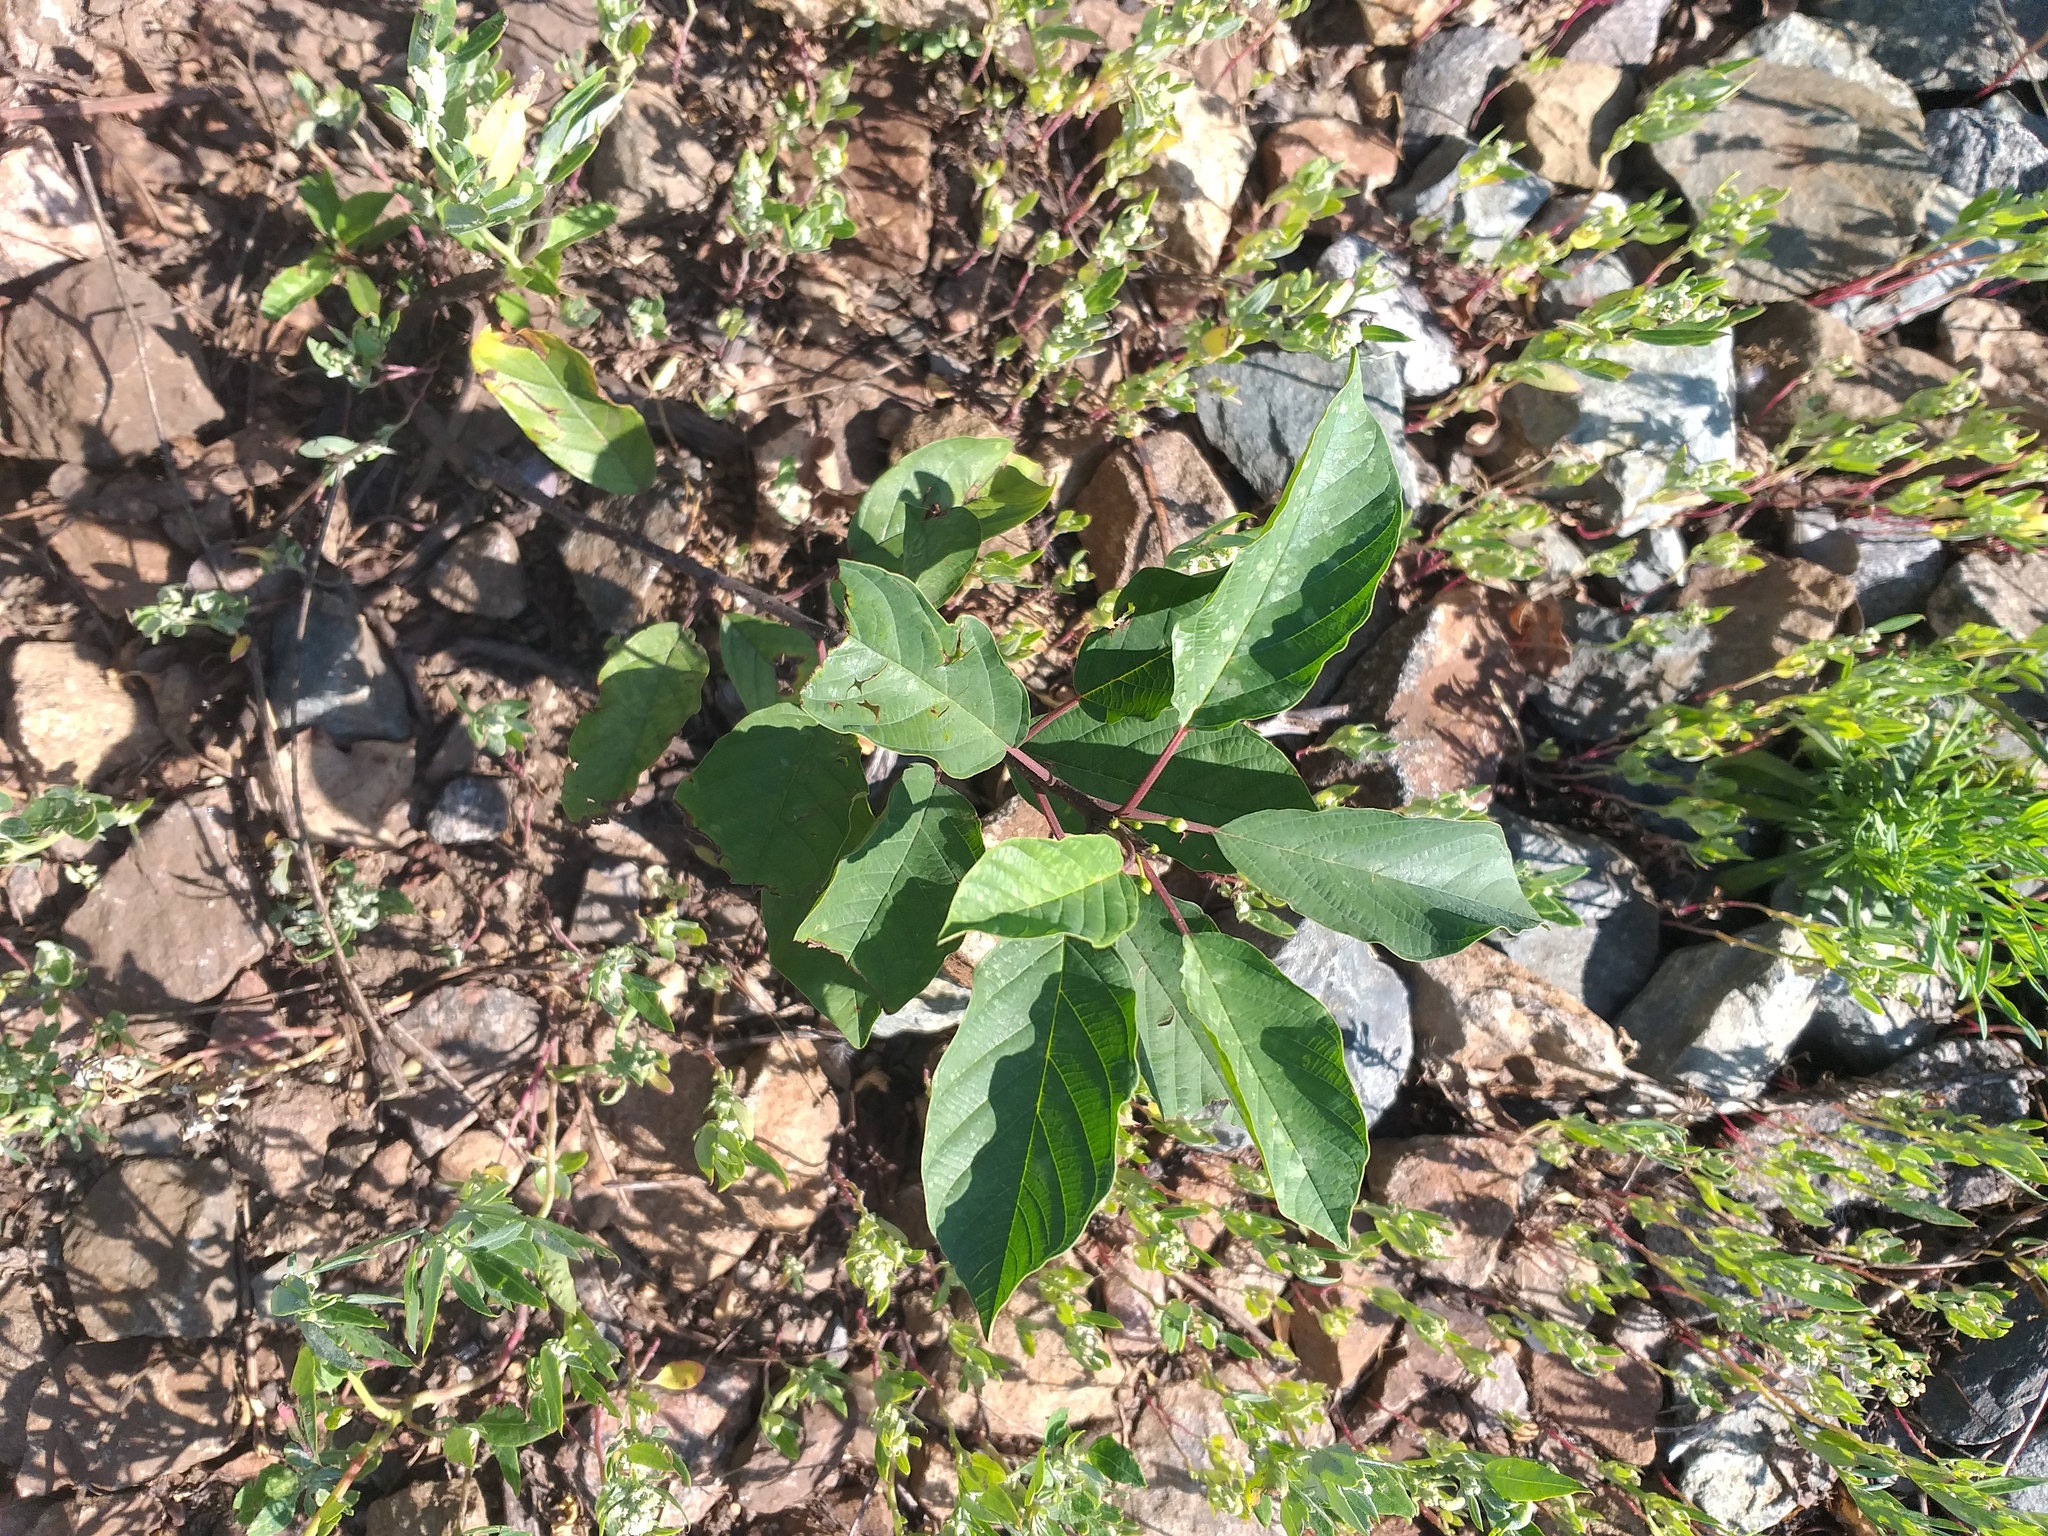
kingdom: Plantae
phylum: Tracheophyta
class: Magnoliopsida
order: Rosales
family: Rhamnaceae
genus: Frangula
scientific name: Frangula alnus
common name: Alder buckthorn
